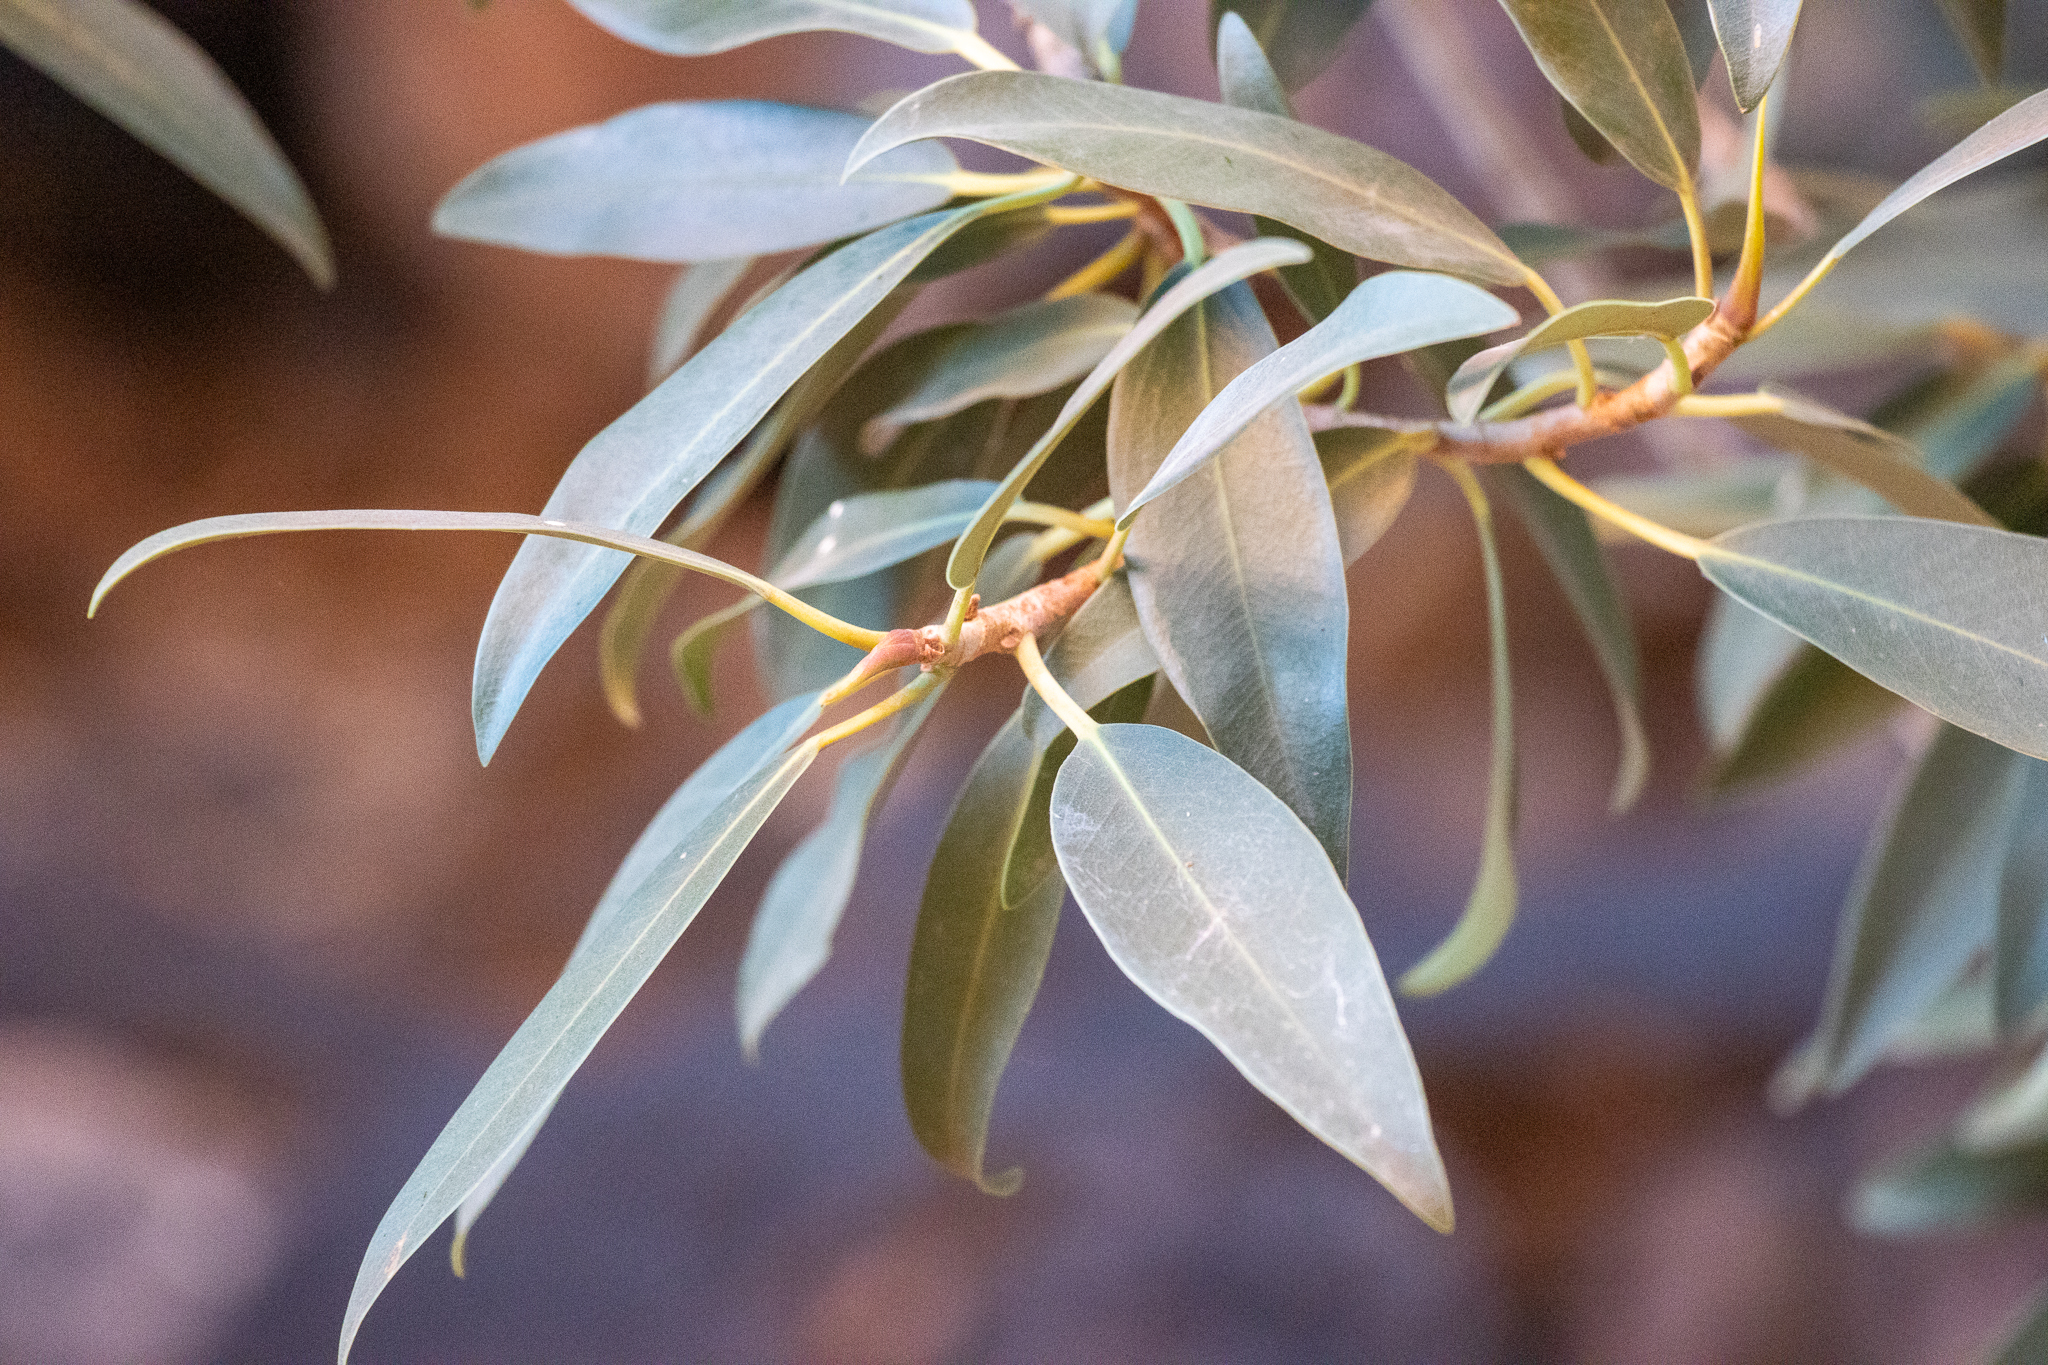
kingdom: Plantae
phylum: Tracheophyta
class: Magnoliopsida
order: Rosales
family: Moraceae
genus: Ficus
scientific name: Ficus desertorum
